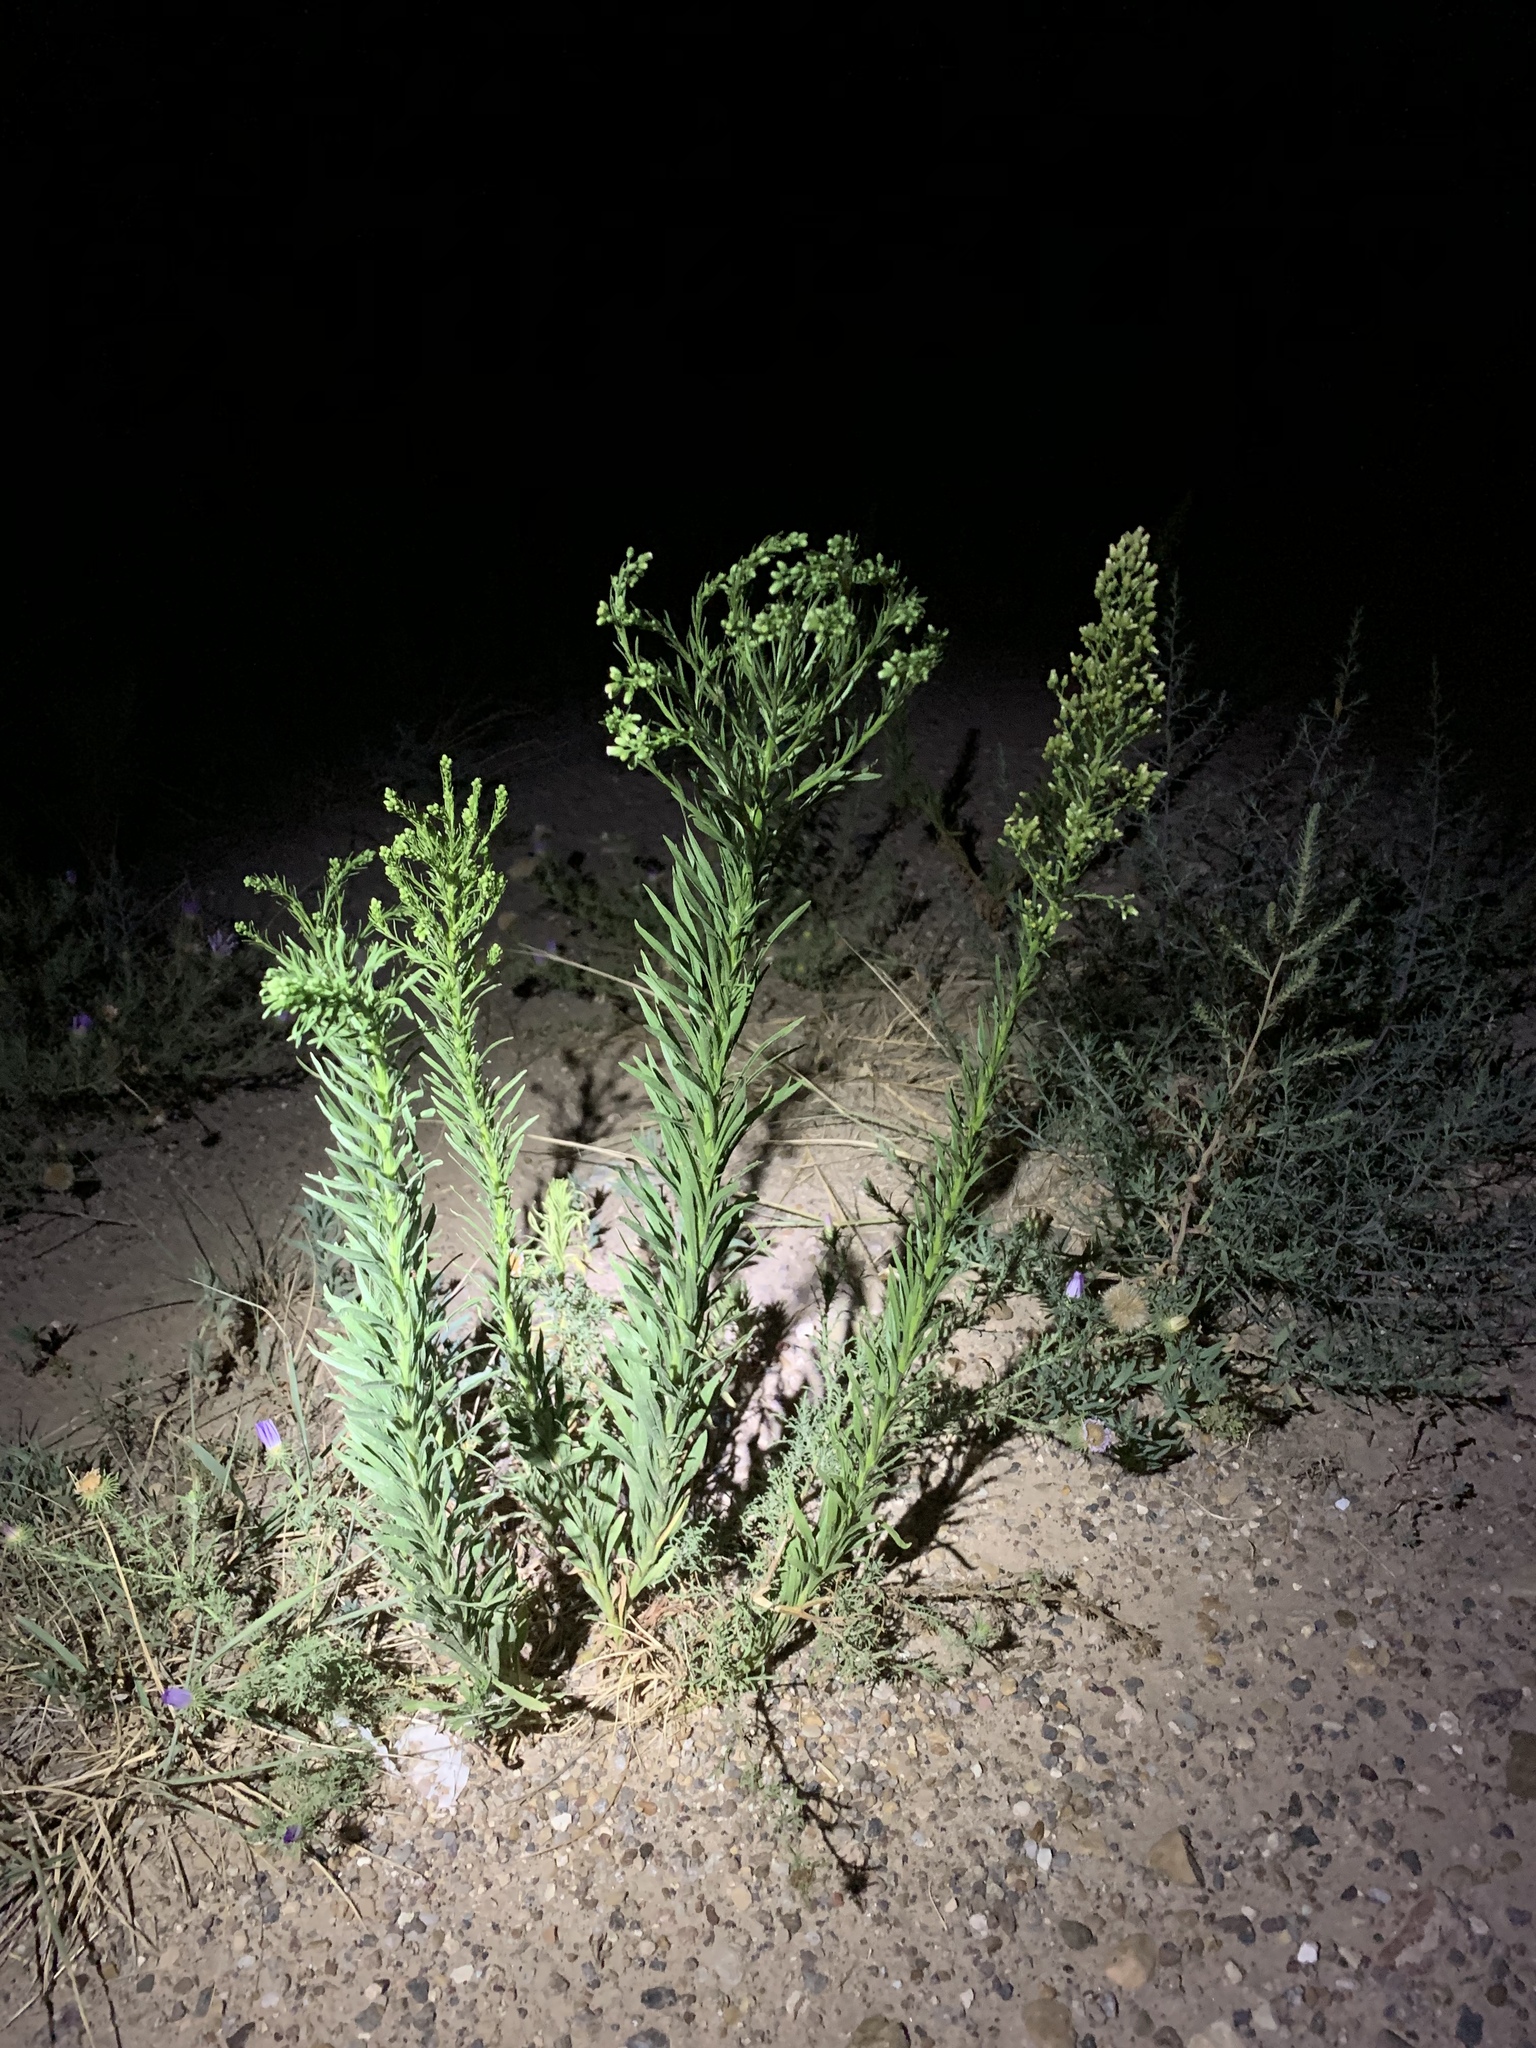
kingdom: Plantae
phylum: Tracheophyta
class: Magnoliopsida
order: Asterales
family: Asteraceae
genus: Erigeron
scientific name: Erigeron canadensis
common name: Canadian fleabane
